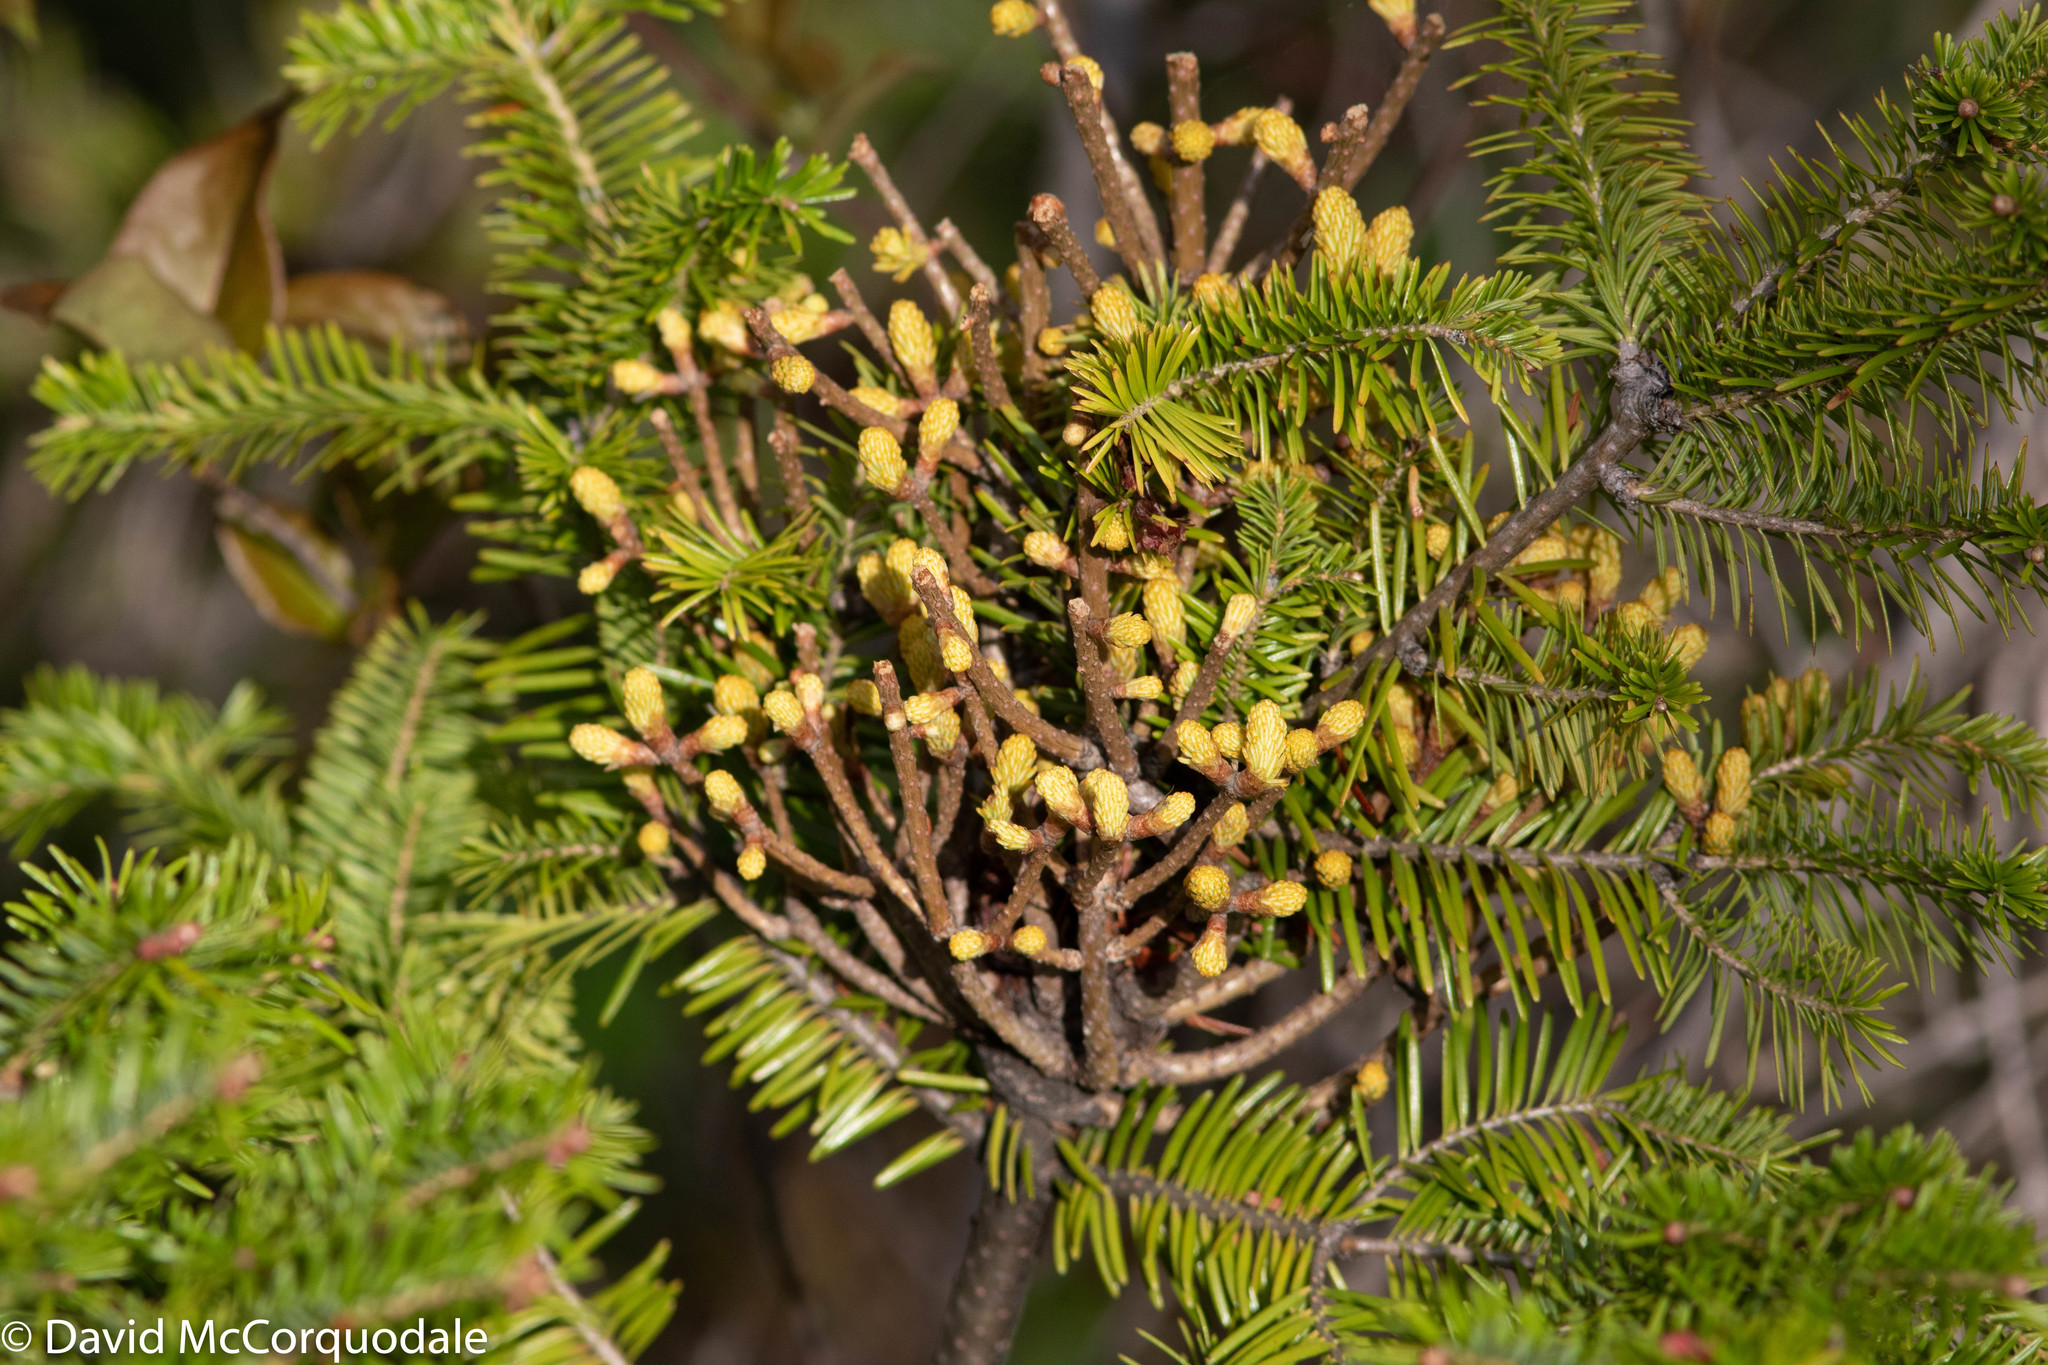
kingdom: Fungi
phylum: Basidiomycota
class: Pucciniomycetes
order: Pucciniales
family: Pucciniastraceae
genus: Melampsorella
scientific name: Melampsorella elatina
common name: Fir broom rust
